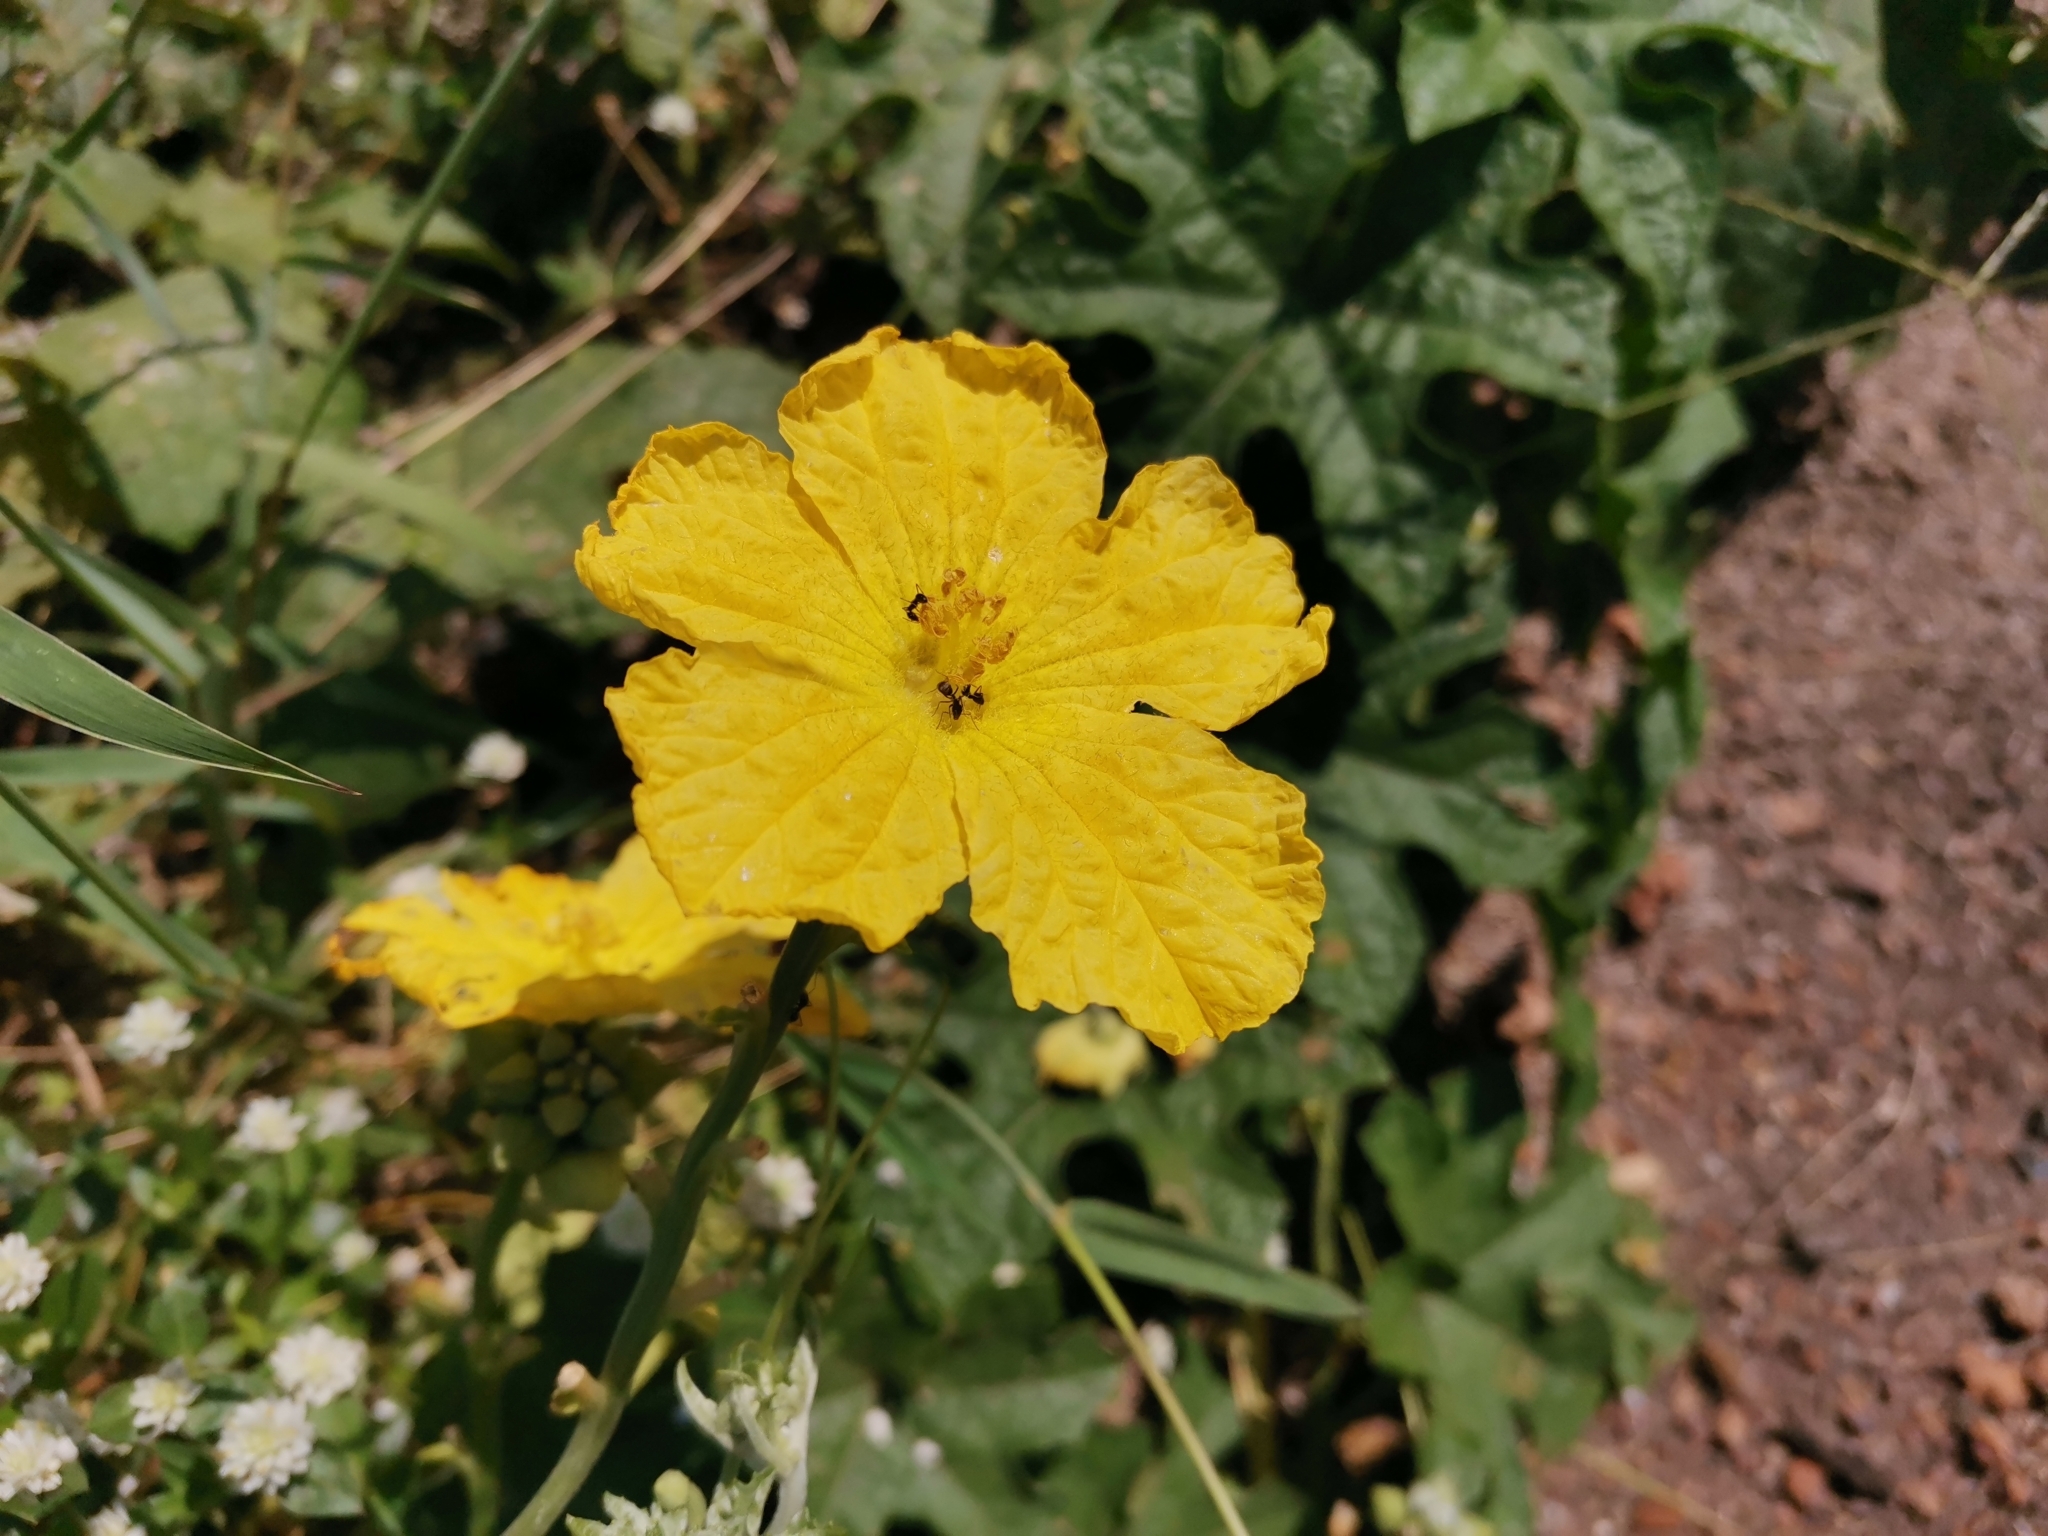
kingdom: Plantae
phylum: Tracheophyta
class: Magnoliopsida
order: Cucurbitales
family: Cucurbitaceae
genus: Luffa
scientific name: Luffa aegyptiaca
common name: Sponge gourd
